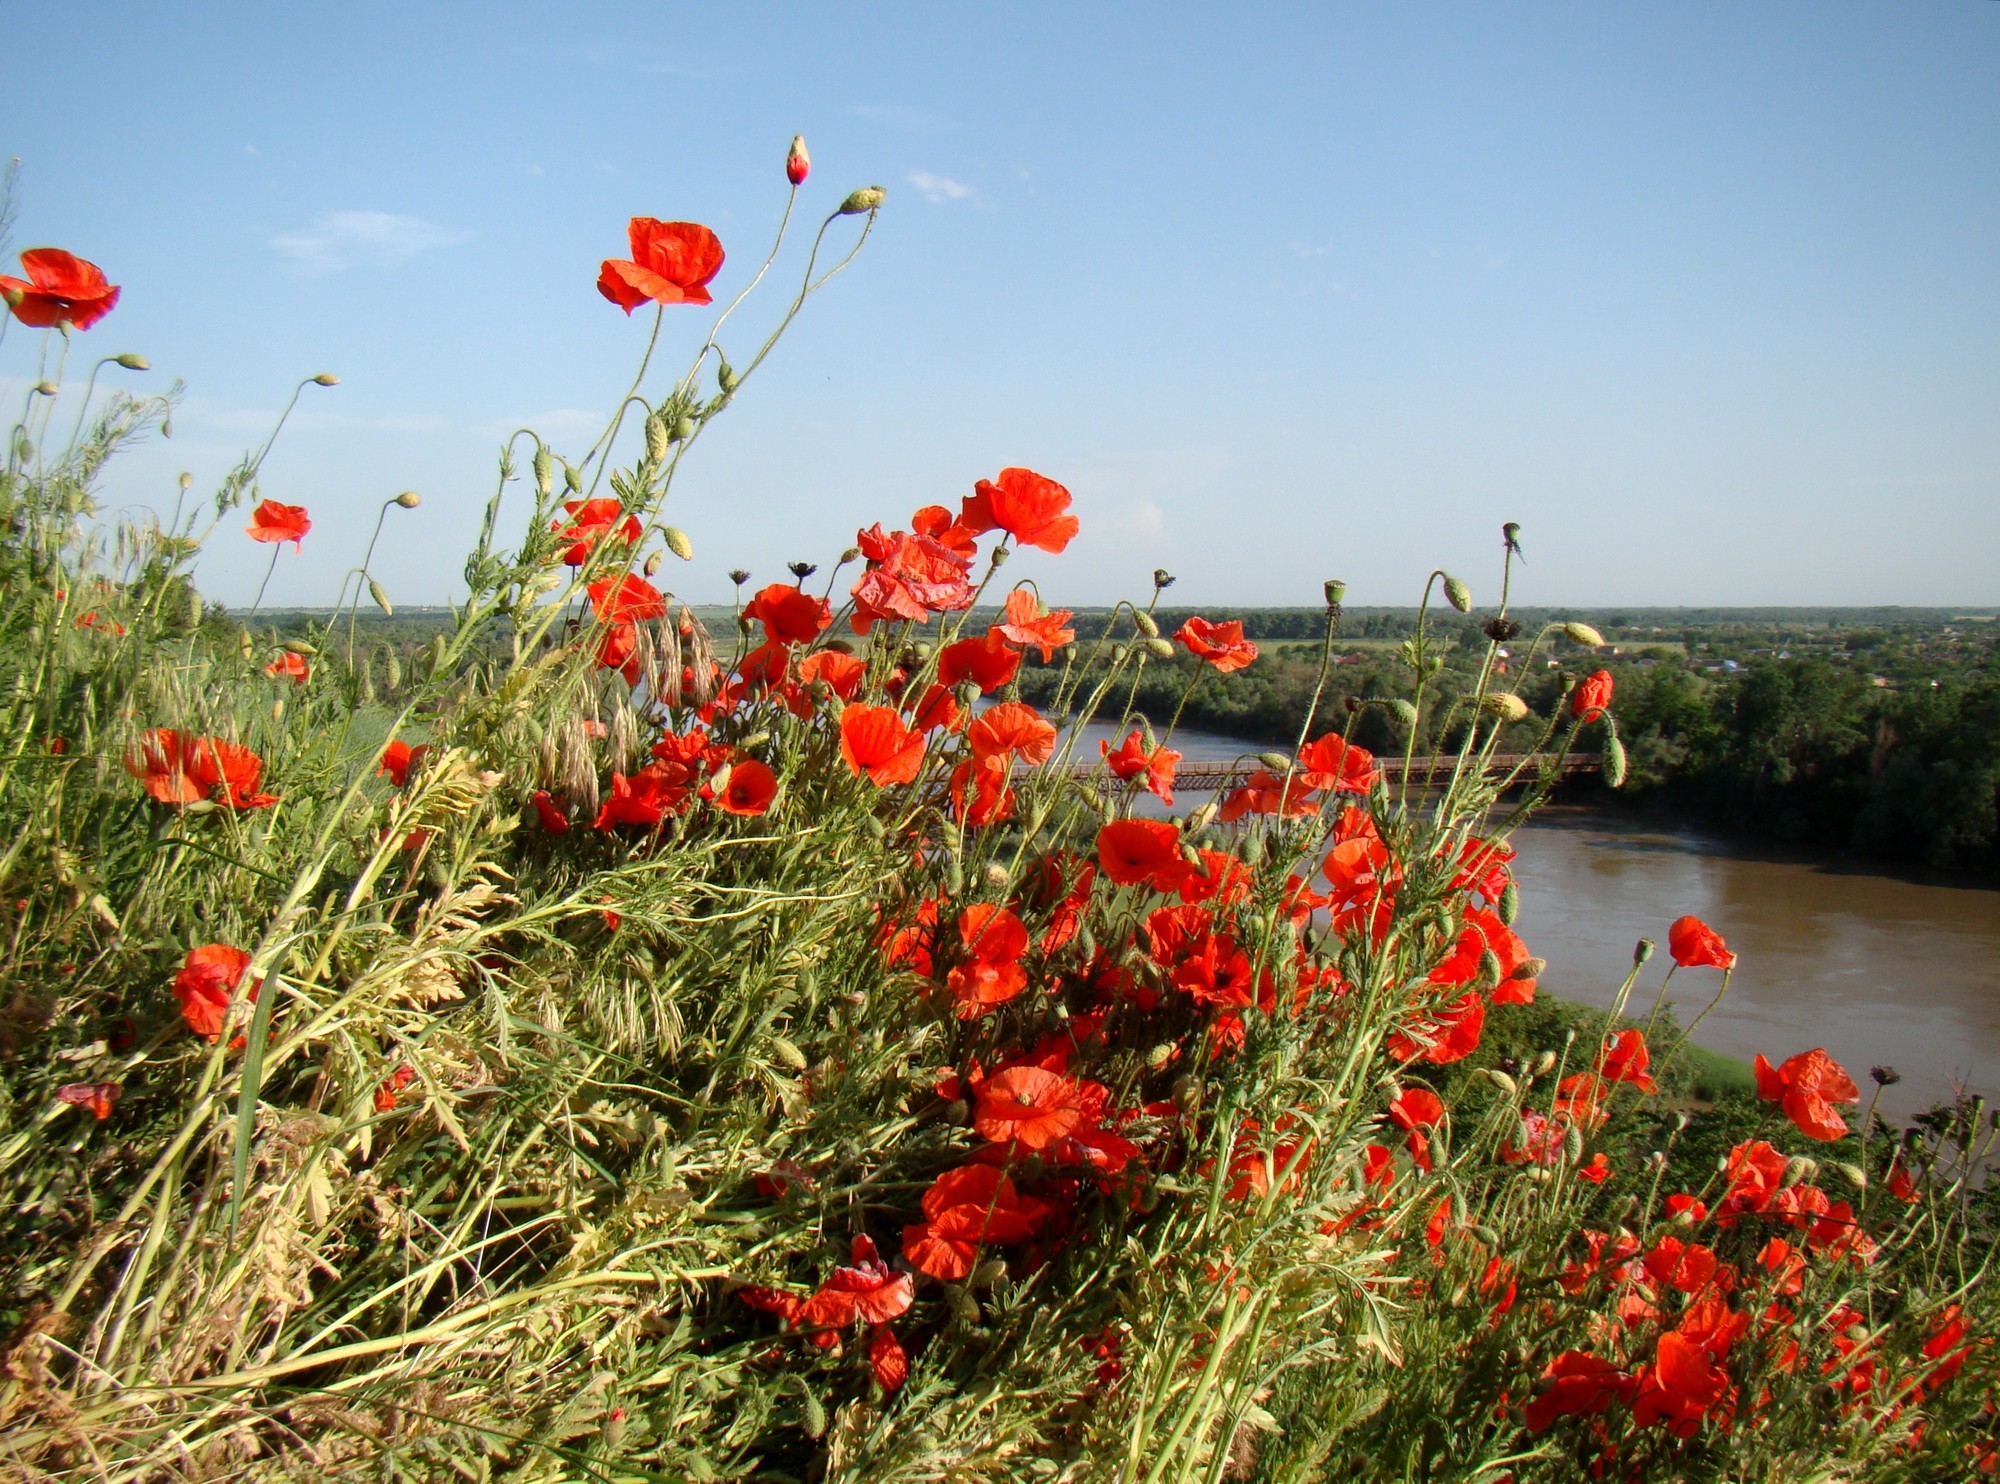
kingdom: Plantae
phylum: Tracheophyta
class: Magnoliopsida
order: Ranunculales
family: Papaveraceae
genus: Papaver
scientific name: Papaver rhoeas
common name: Corn poppy
